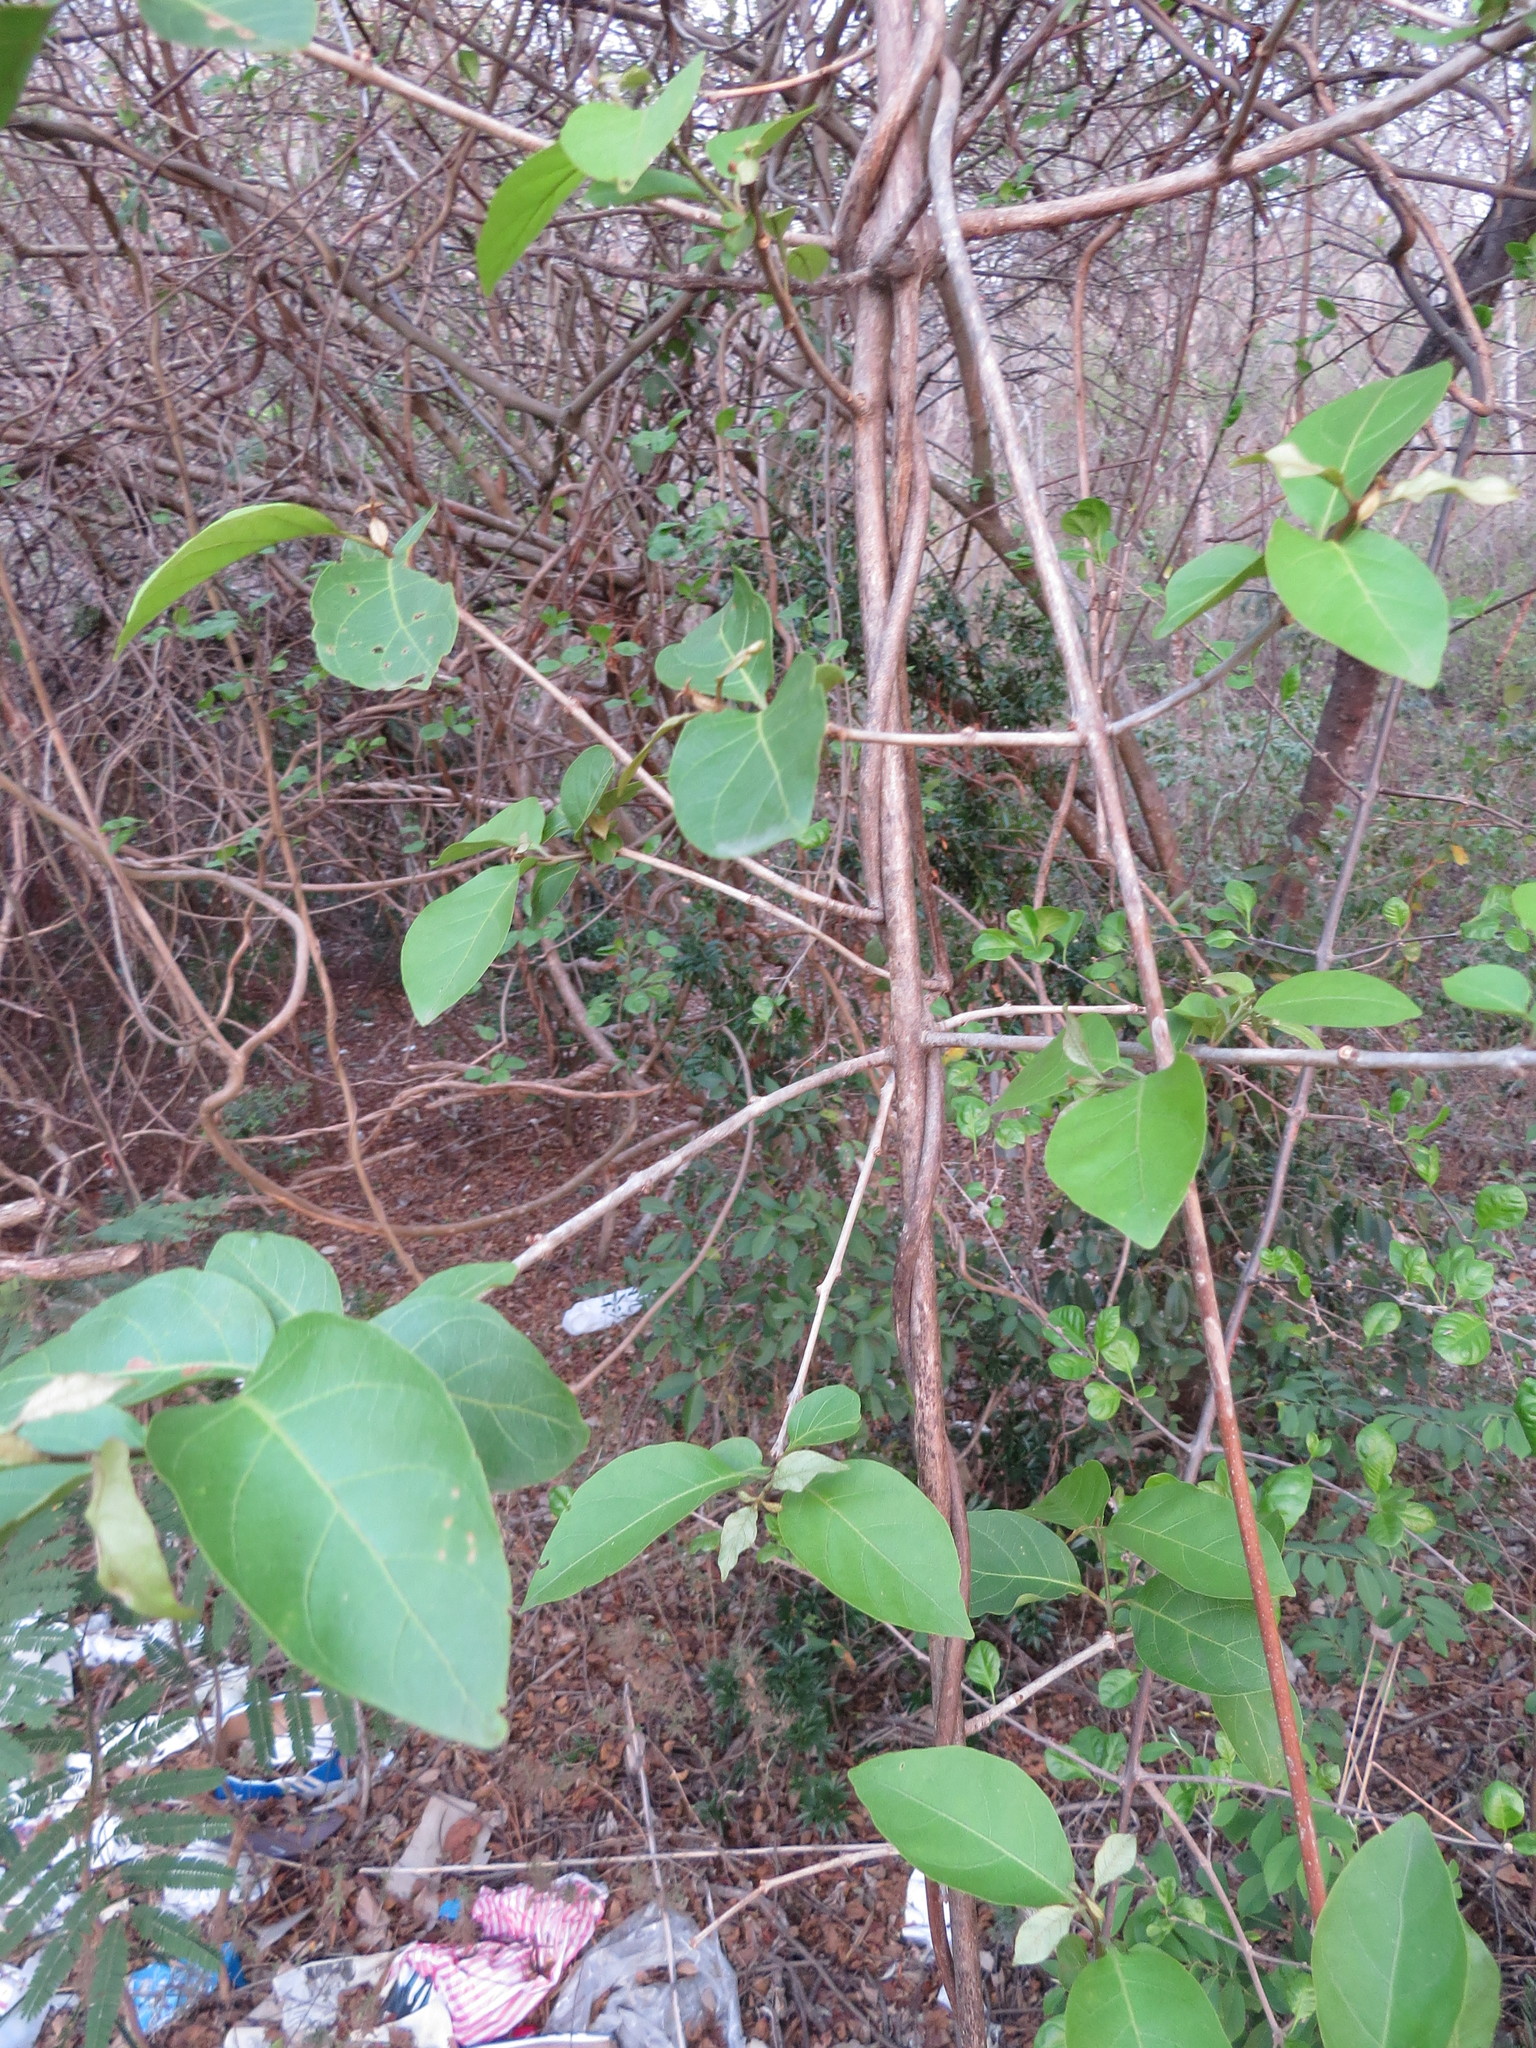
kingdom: Plantae
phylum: Tracheophyta
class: Magnoliopsida
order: Myrtales
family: Combretaceae
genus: Combretum
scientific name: Combretum farinosum
